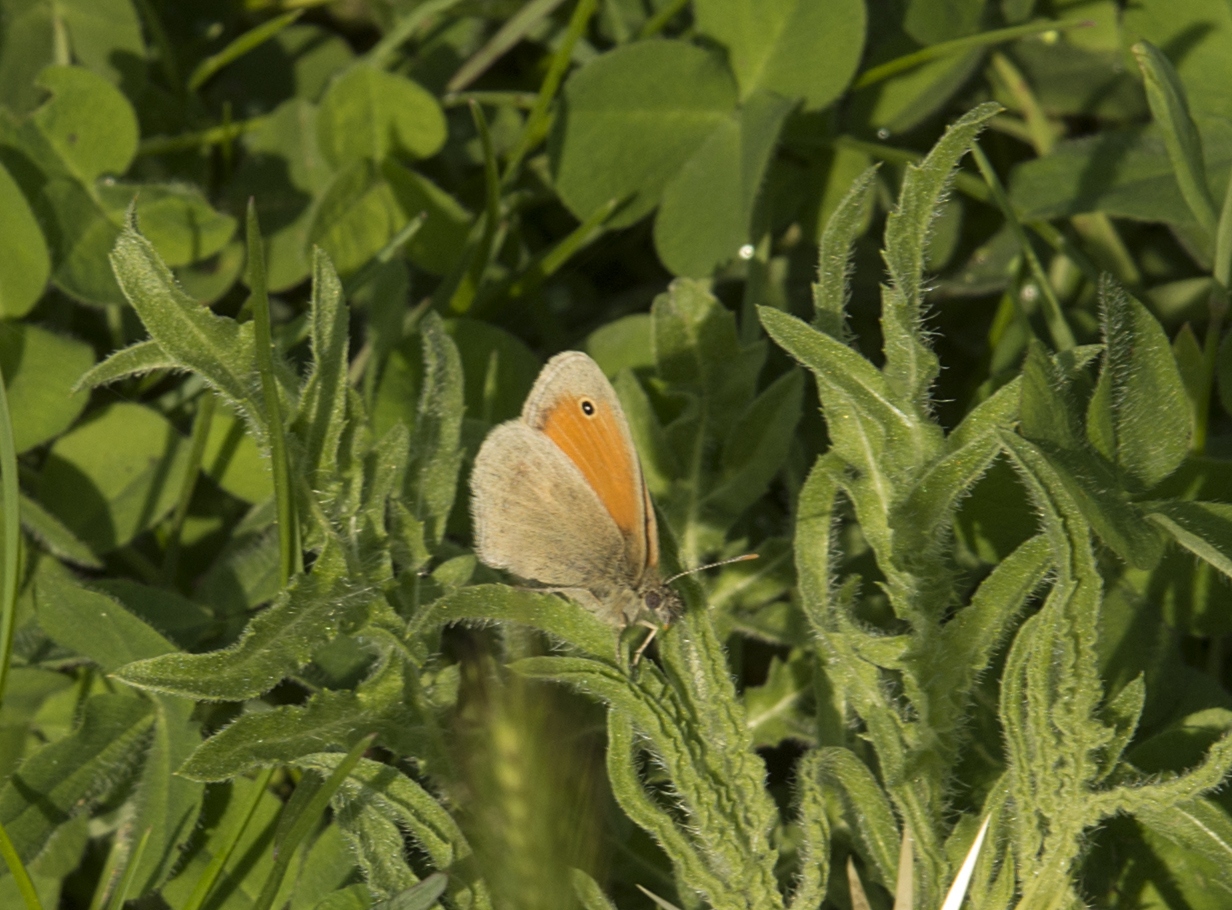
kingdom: Animalia
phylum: Arthropoda
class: Insecta
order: Lepidoptera
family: Nymphalidae
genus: Coenonympha
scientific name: Coenonympha pamphilus
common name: Small heath
